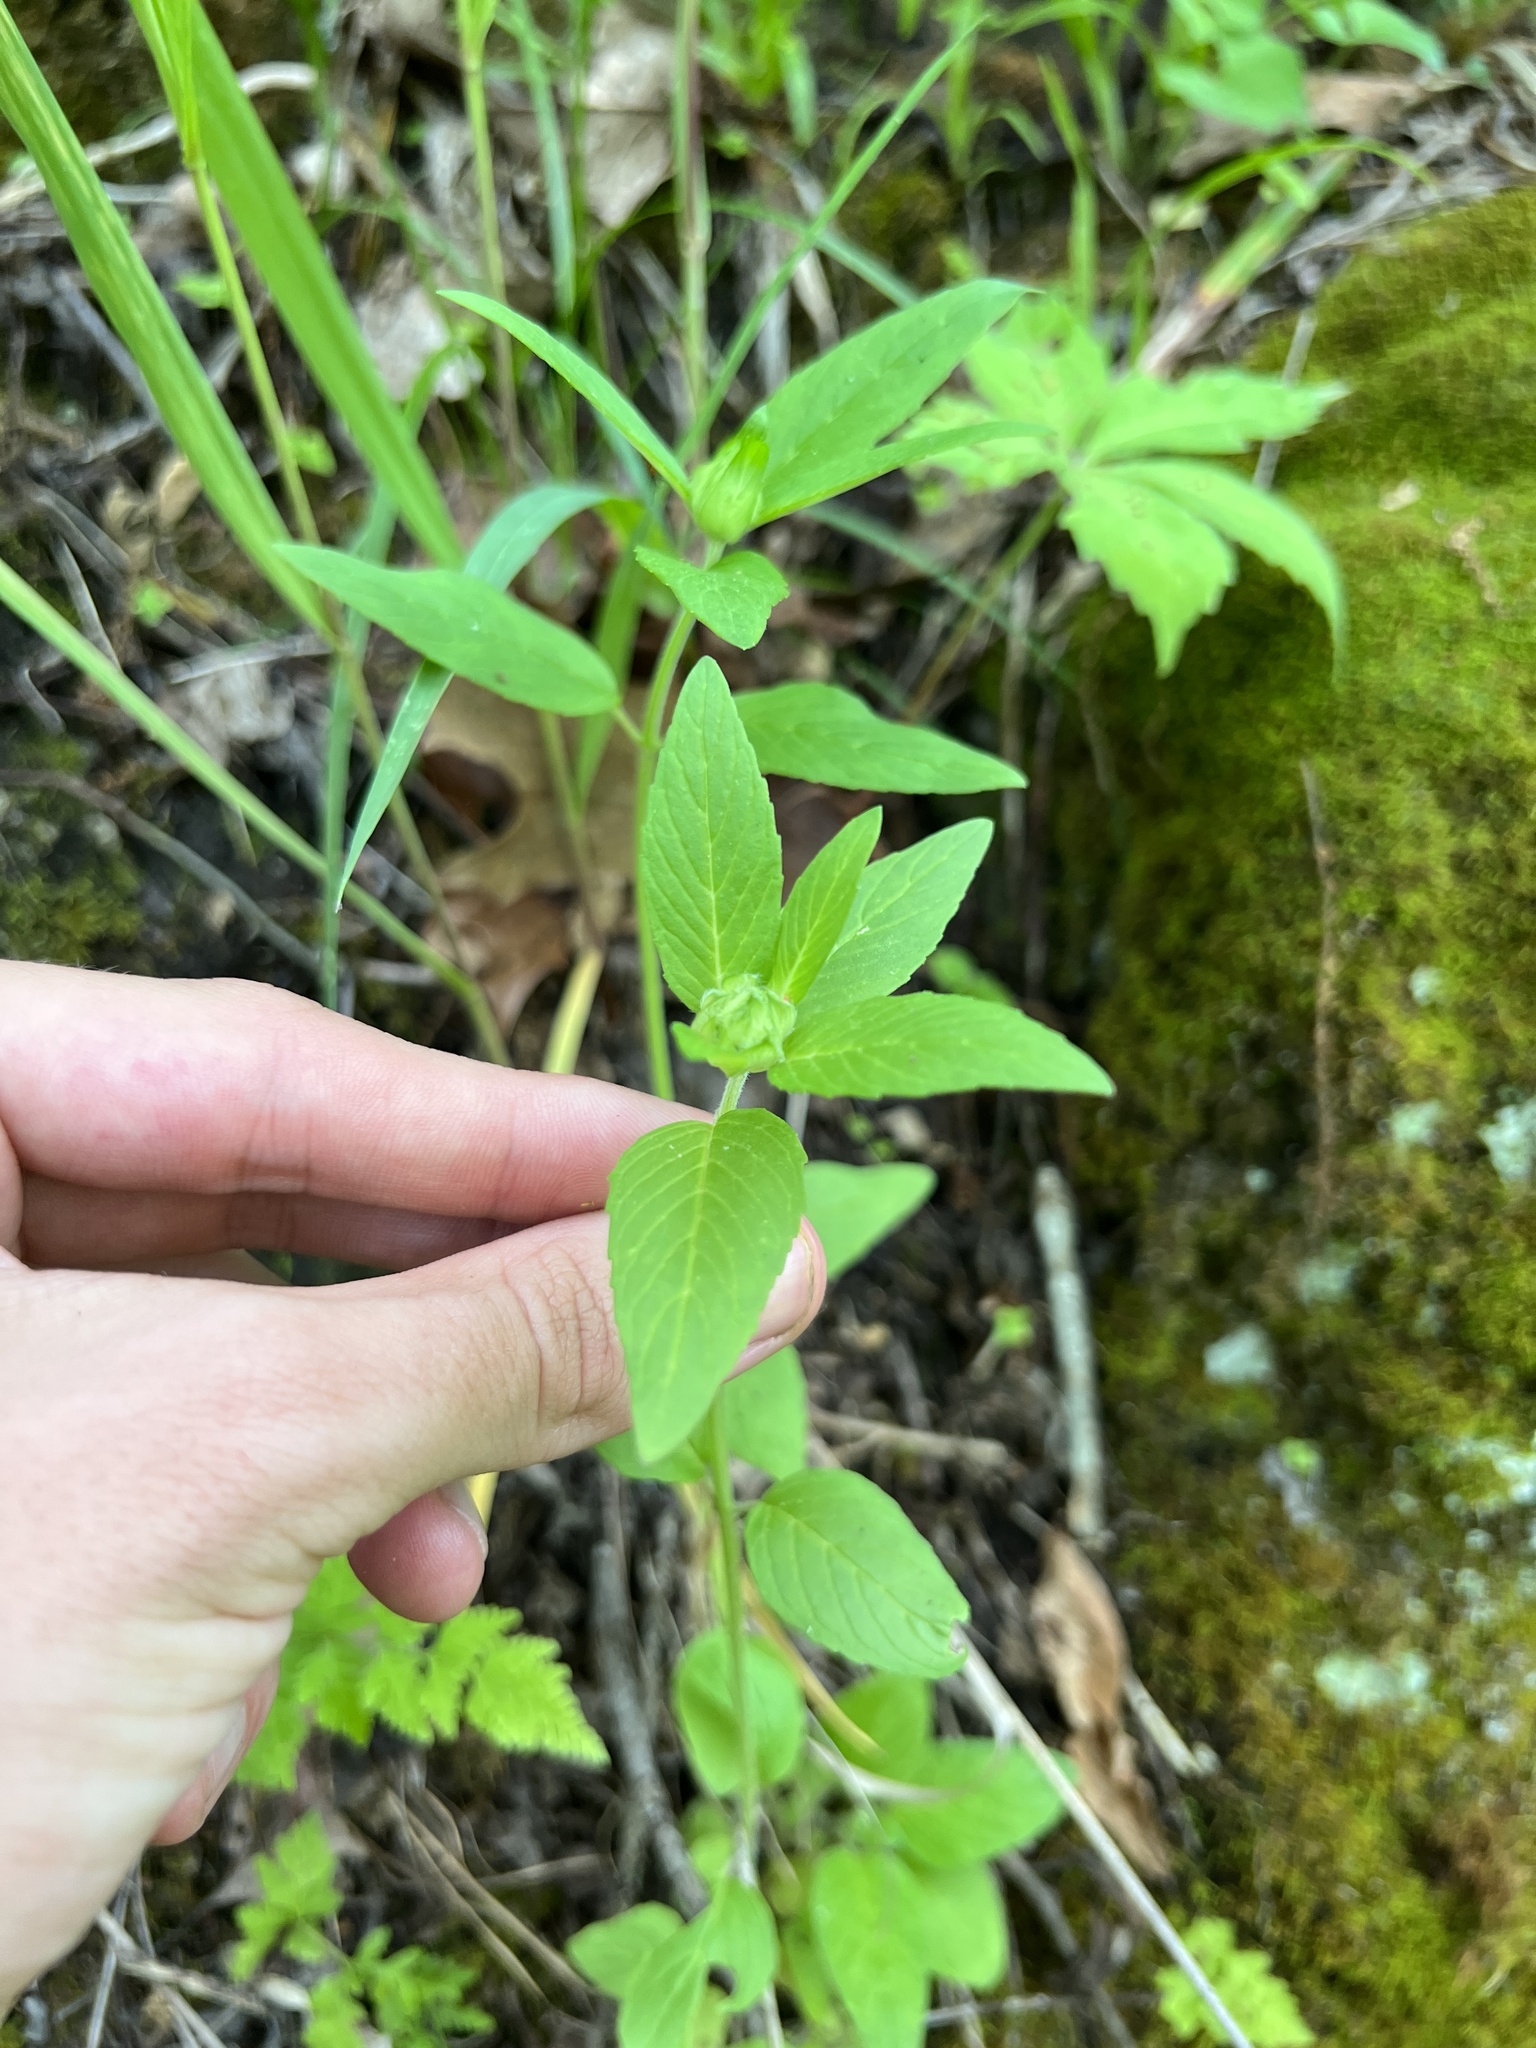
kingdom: Plantae
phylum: Tracheophyta
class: Magnoliopsida
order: Lamiales
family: Lamiaceae
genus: Blephilia
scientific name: Blephilia ciliata
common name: Downy blephilia
